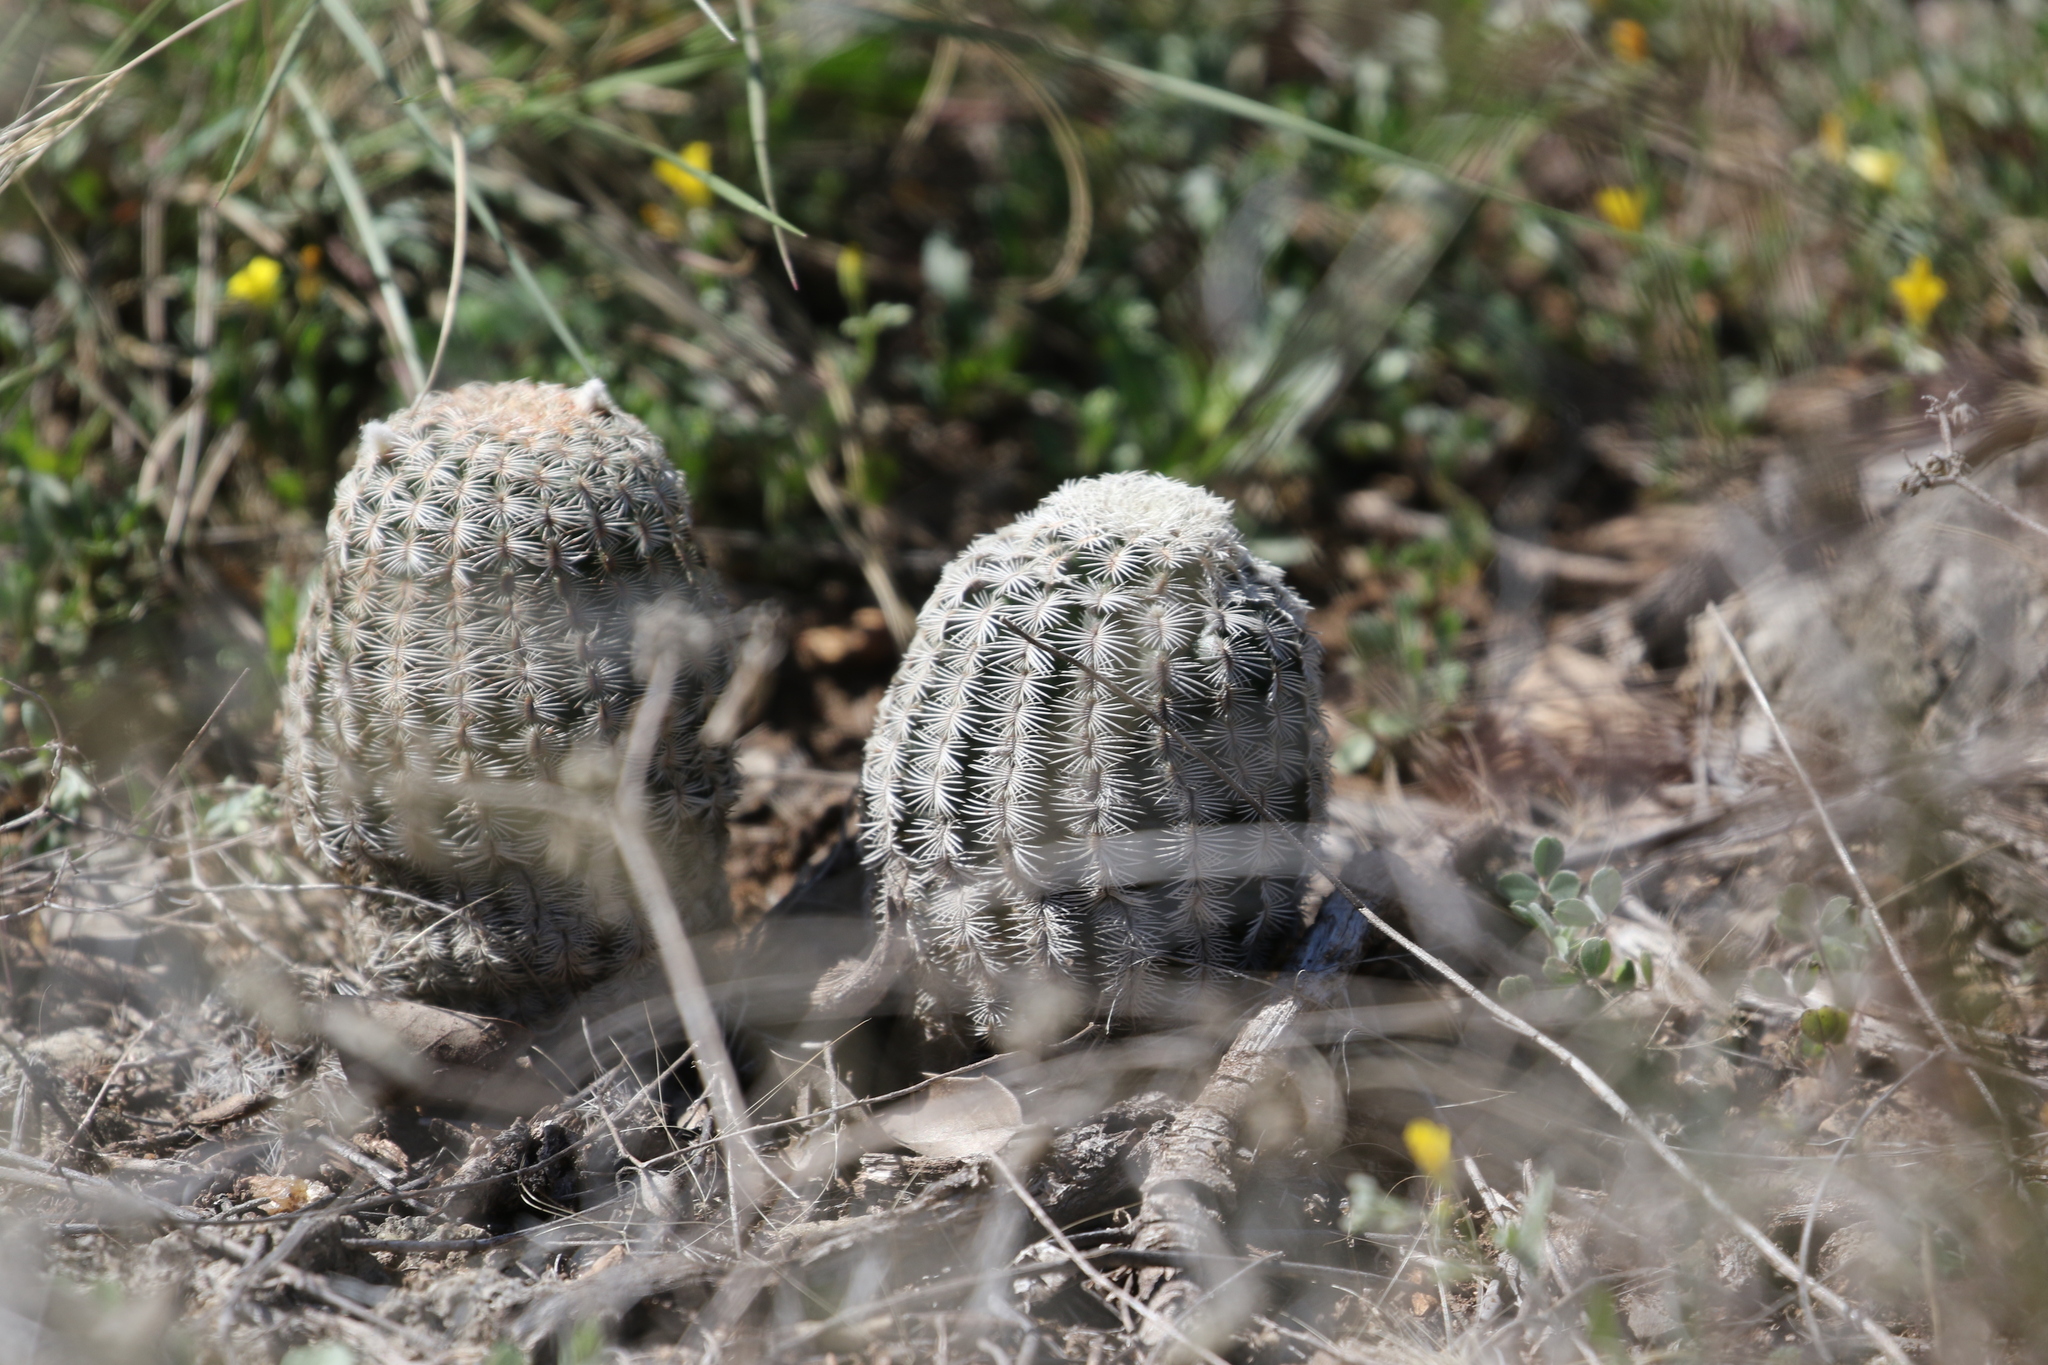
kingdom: Plantae
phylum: Tracheophyta
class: Magnoliopsida
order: Caryophyllales
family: Cactaceae
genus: Echinocereus
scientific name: Echinocereus reichenbachii
